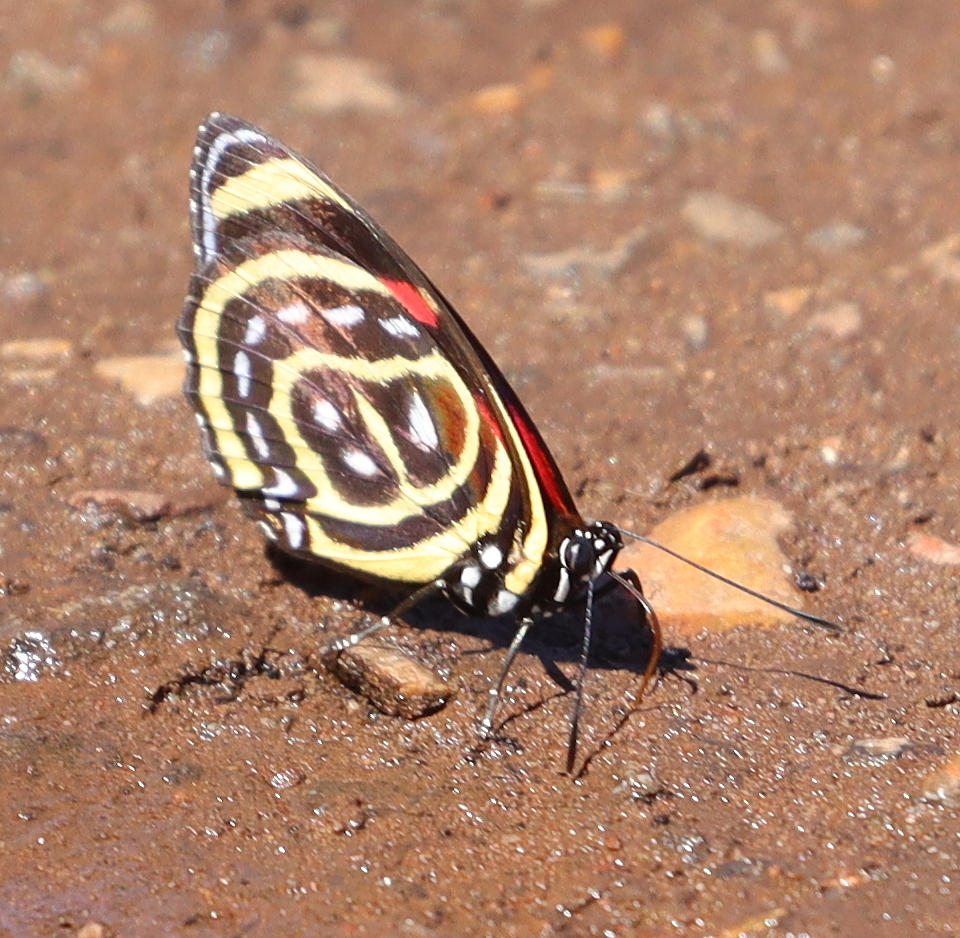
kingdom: Animalia
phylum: Arthropoda
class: Insecta
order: Lepidoptera
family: Nymphalidae
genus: Catagramma
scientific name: Catagramma astarte
